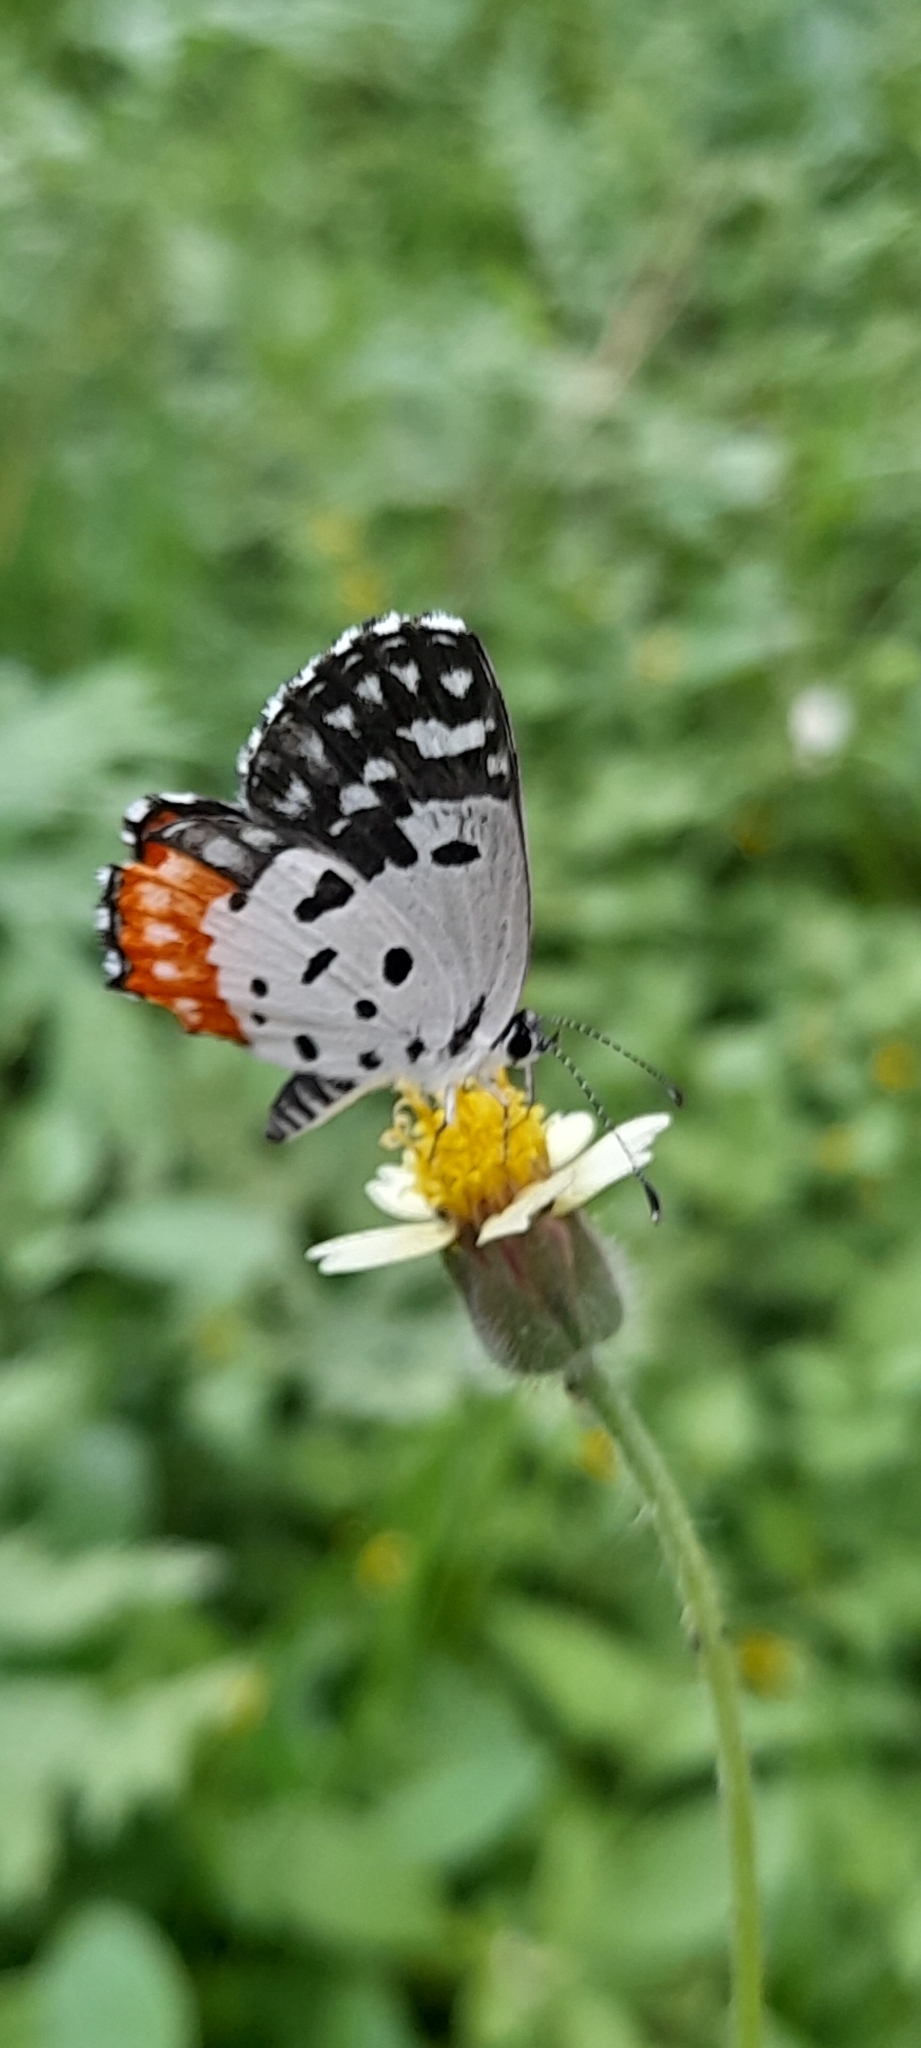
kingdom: Animalia
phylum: Arthropoda
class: Insecta
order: Lepidoptera
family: Lycaenidae
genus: Talicada
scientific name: Talicada nyseus
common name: Red pierrot
